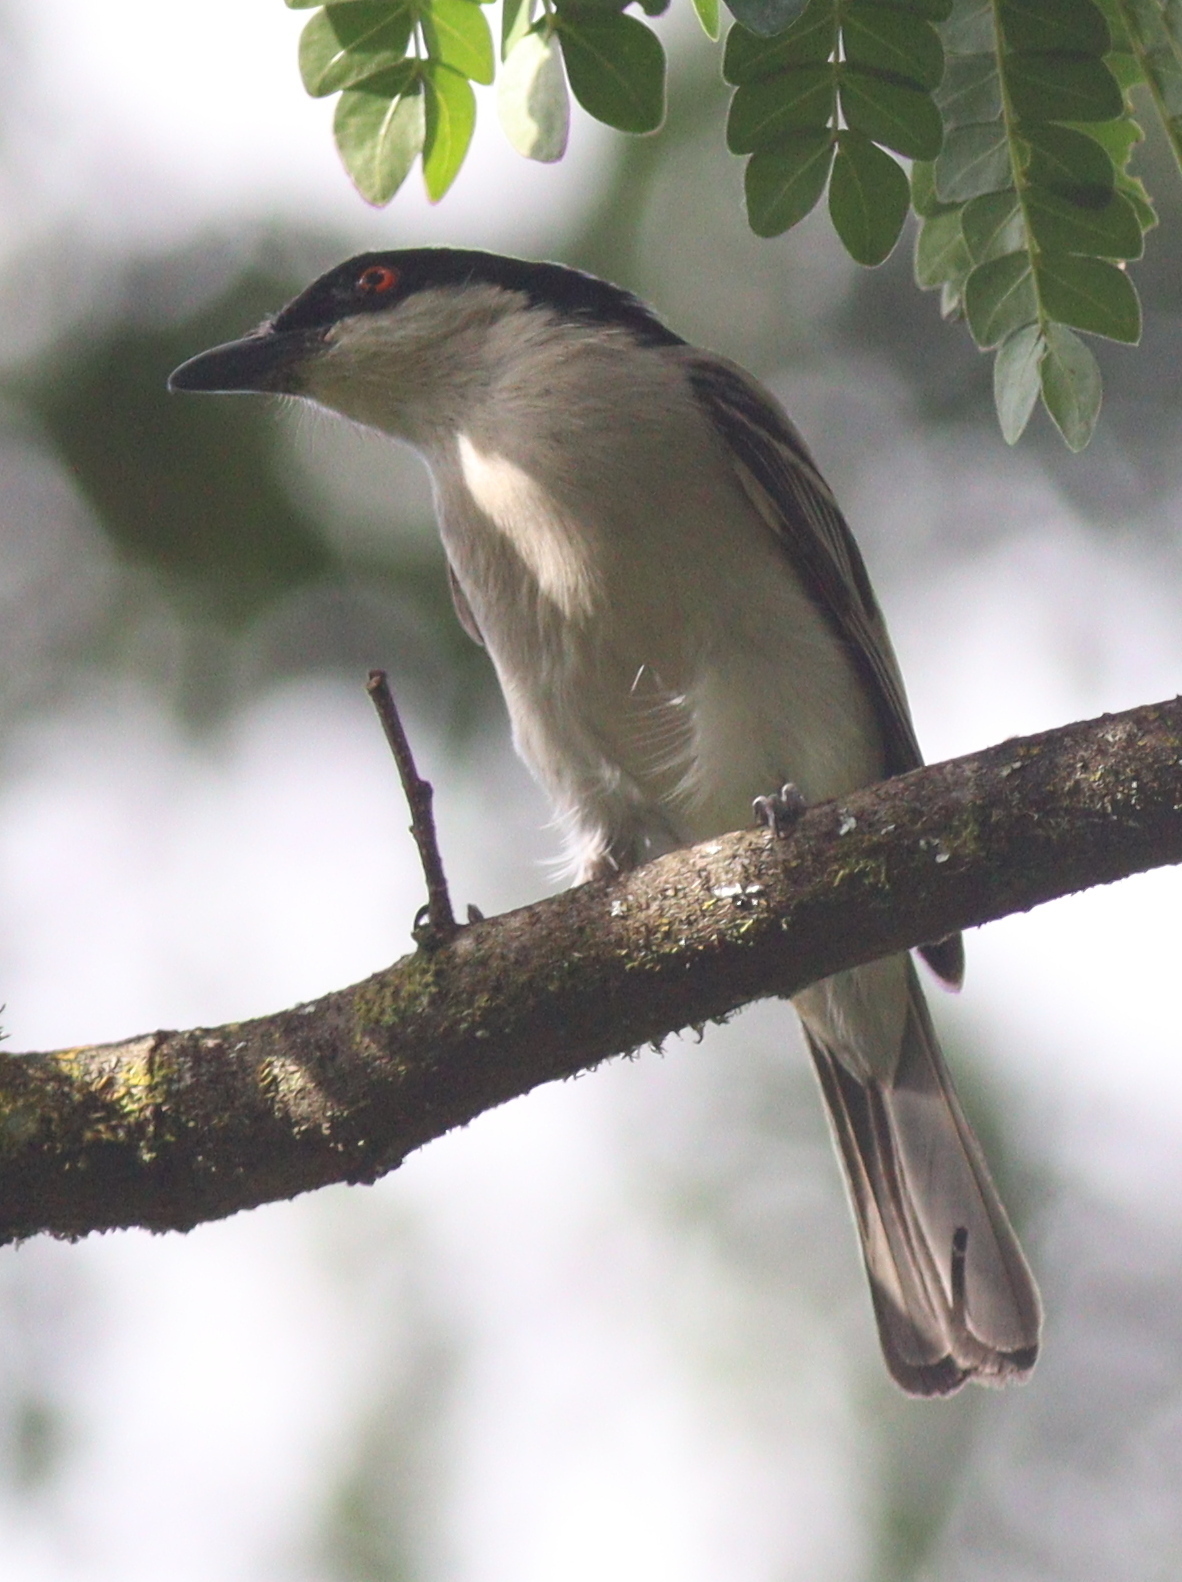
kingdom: Animalia
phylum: Chordata
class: Aves
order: Passeriformes
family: Malaconotidae
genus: Dryoscopus
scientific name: Dryoscopus gambensis
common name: Northern puffback
